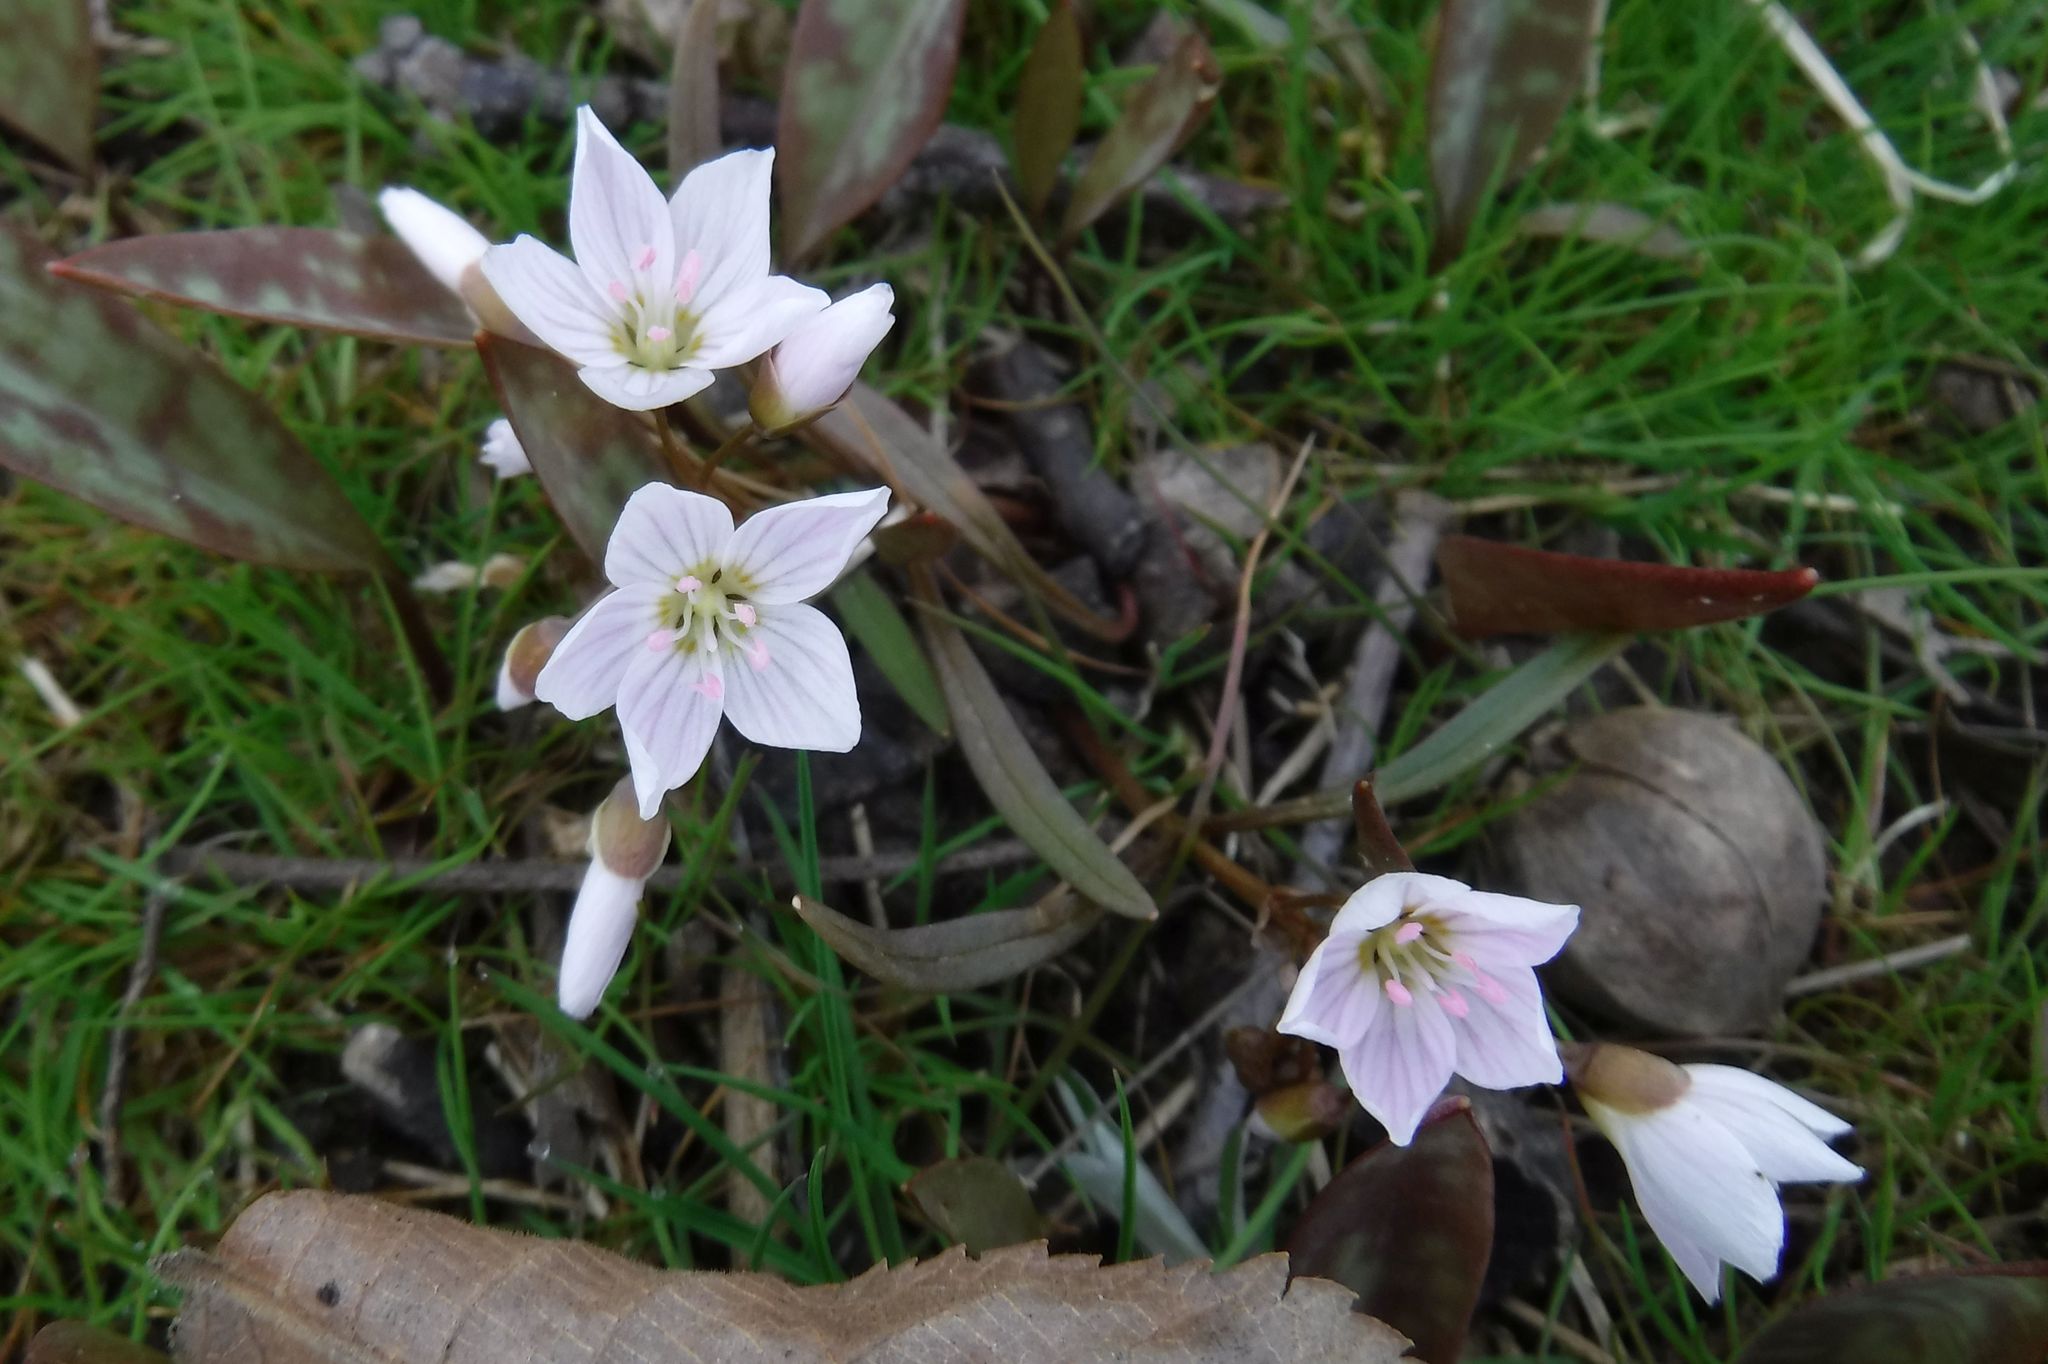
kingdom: Plantae
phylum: Tracheophyta
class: Magnoliopsida
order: Caryophyllales
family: Montiaceae
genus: Claytonia
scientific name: Claytonia virginica
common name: Virginia springbeauty
